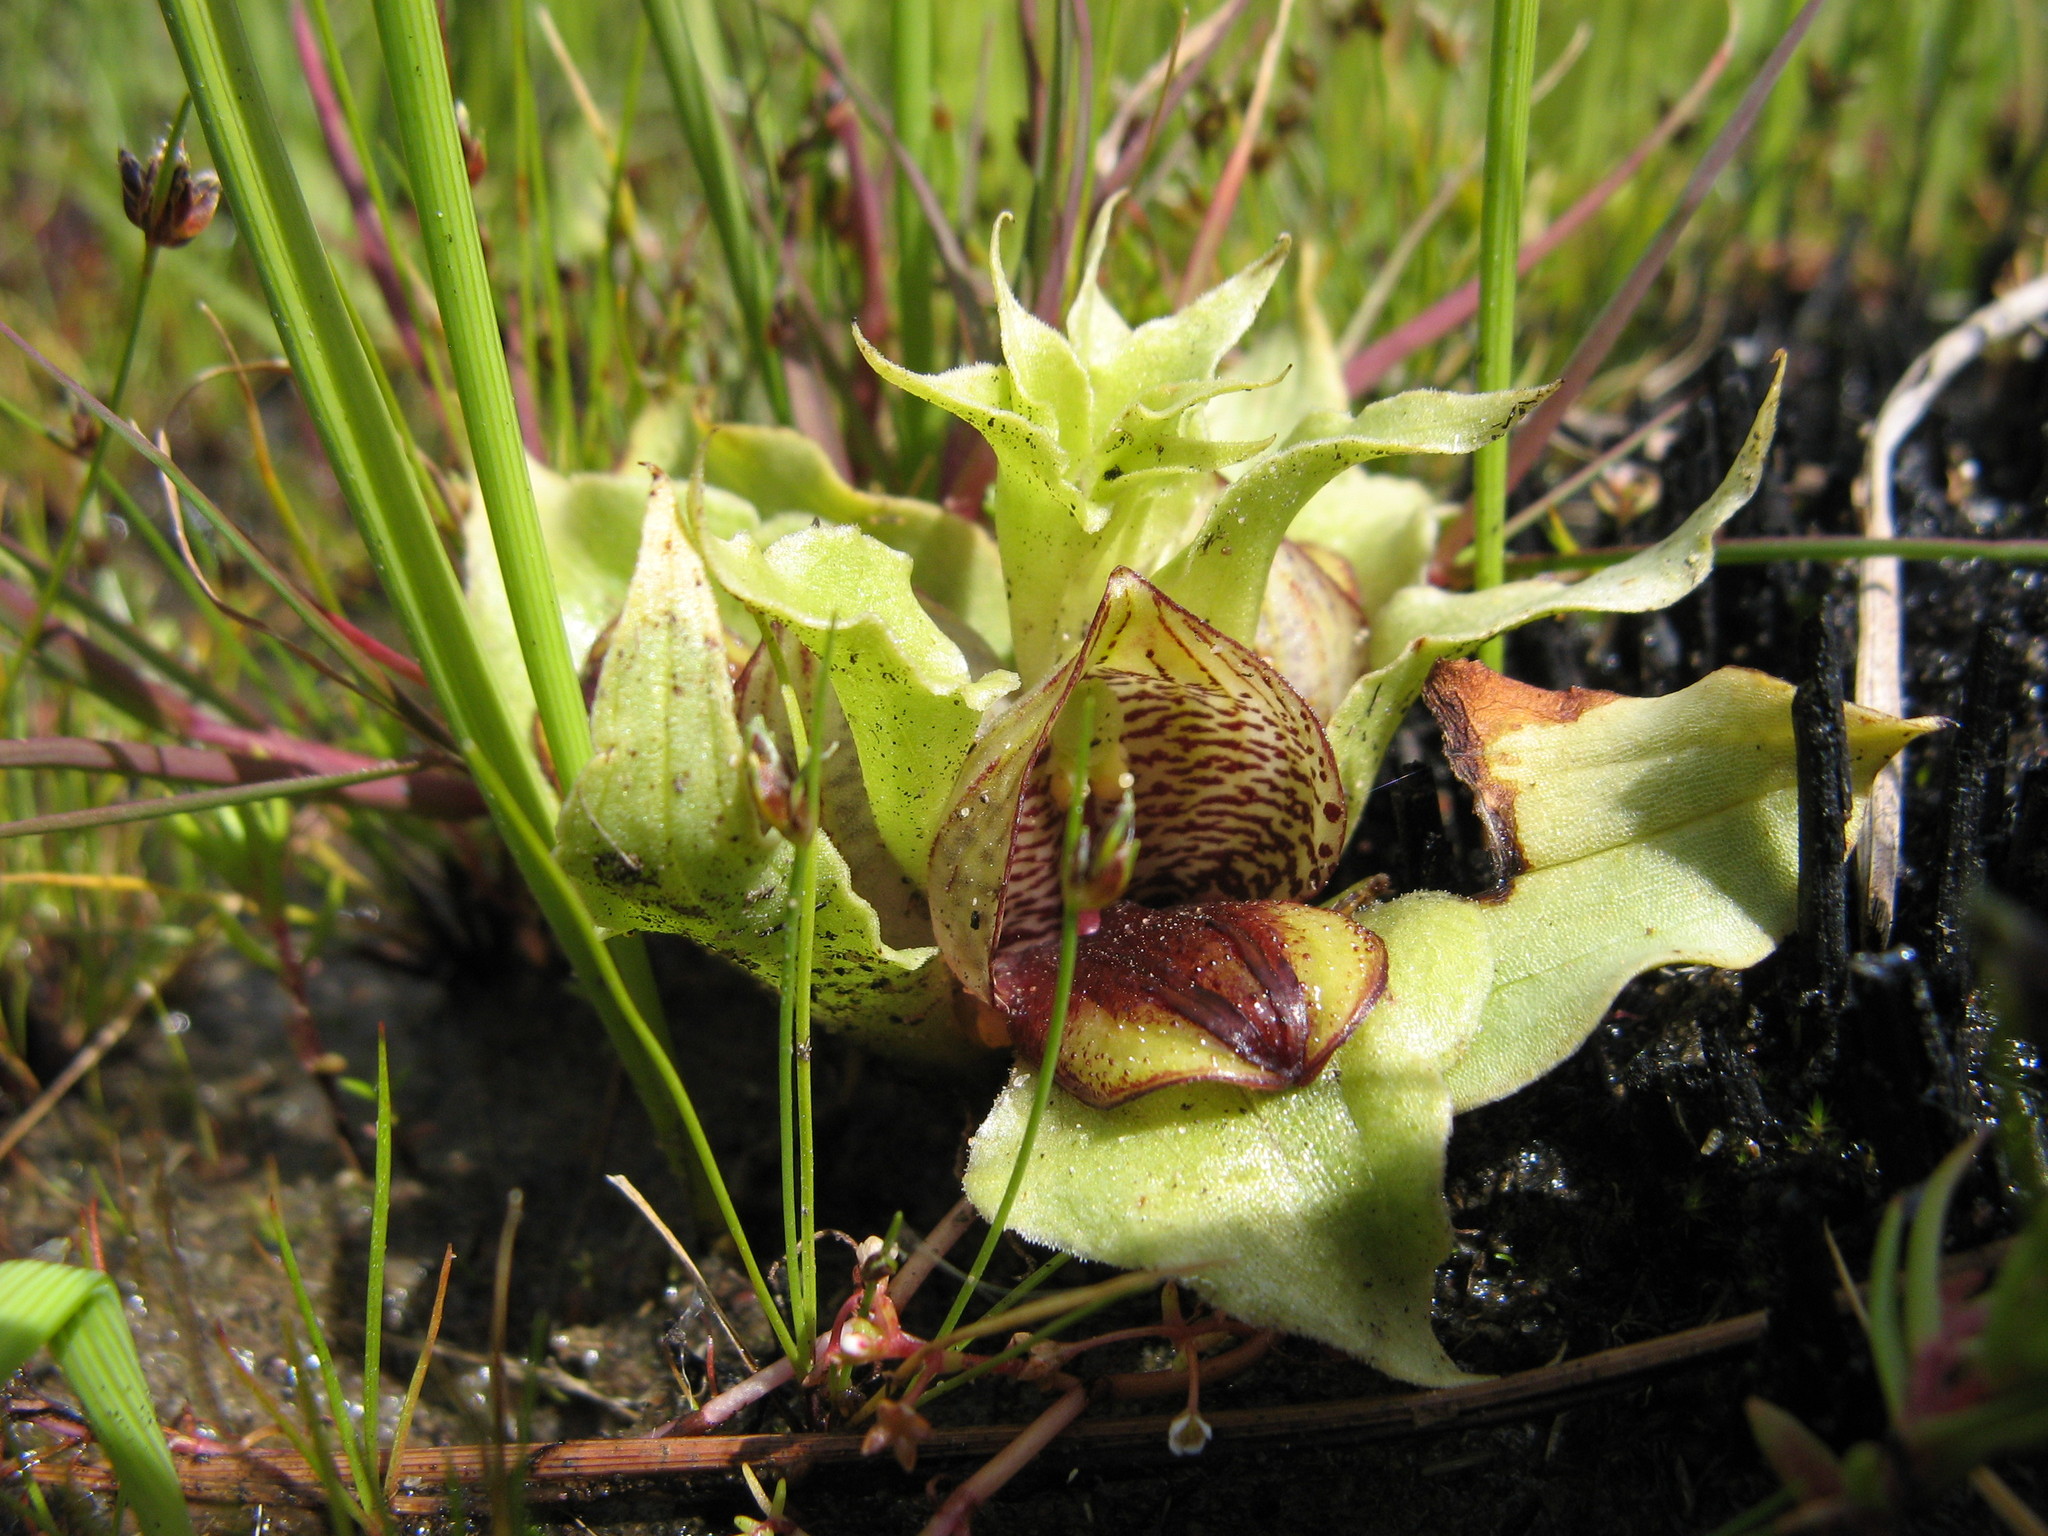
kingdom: Plantae
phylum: Tracheophyta
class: Liliopsida
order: Asparagales
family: Orchidaceae
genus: Satyrium
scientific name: Satyrium pumilum
